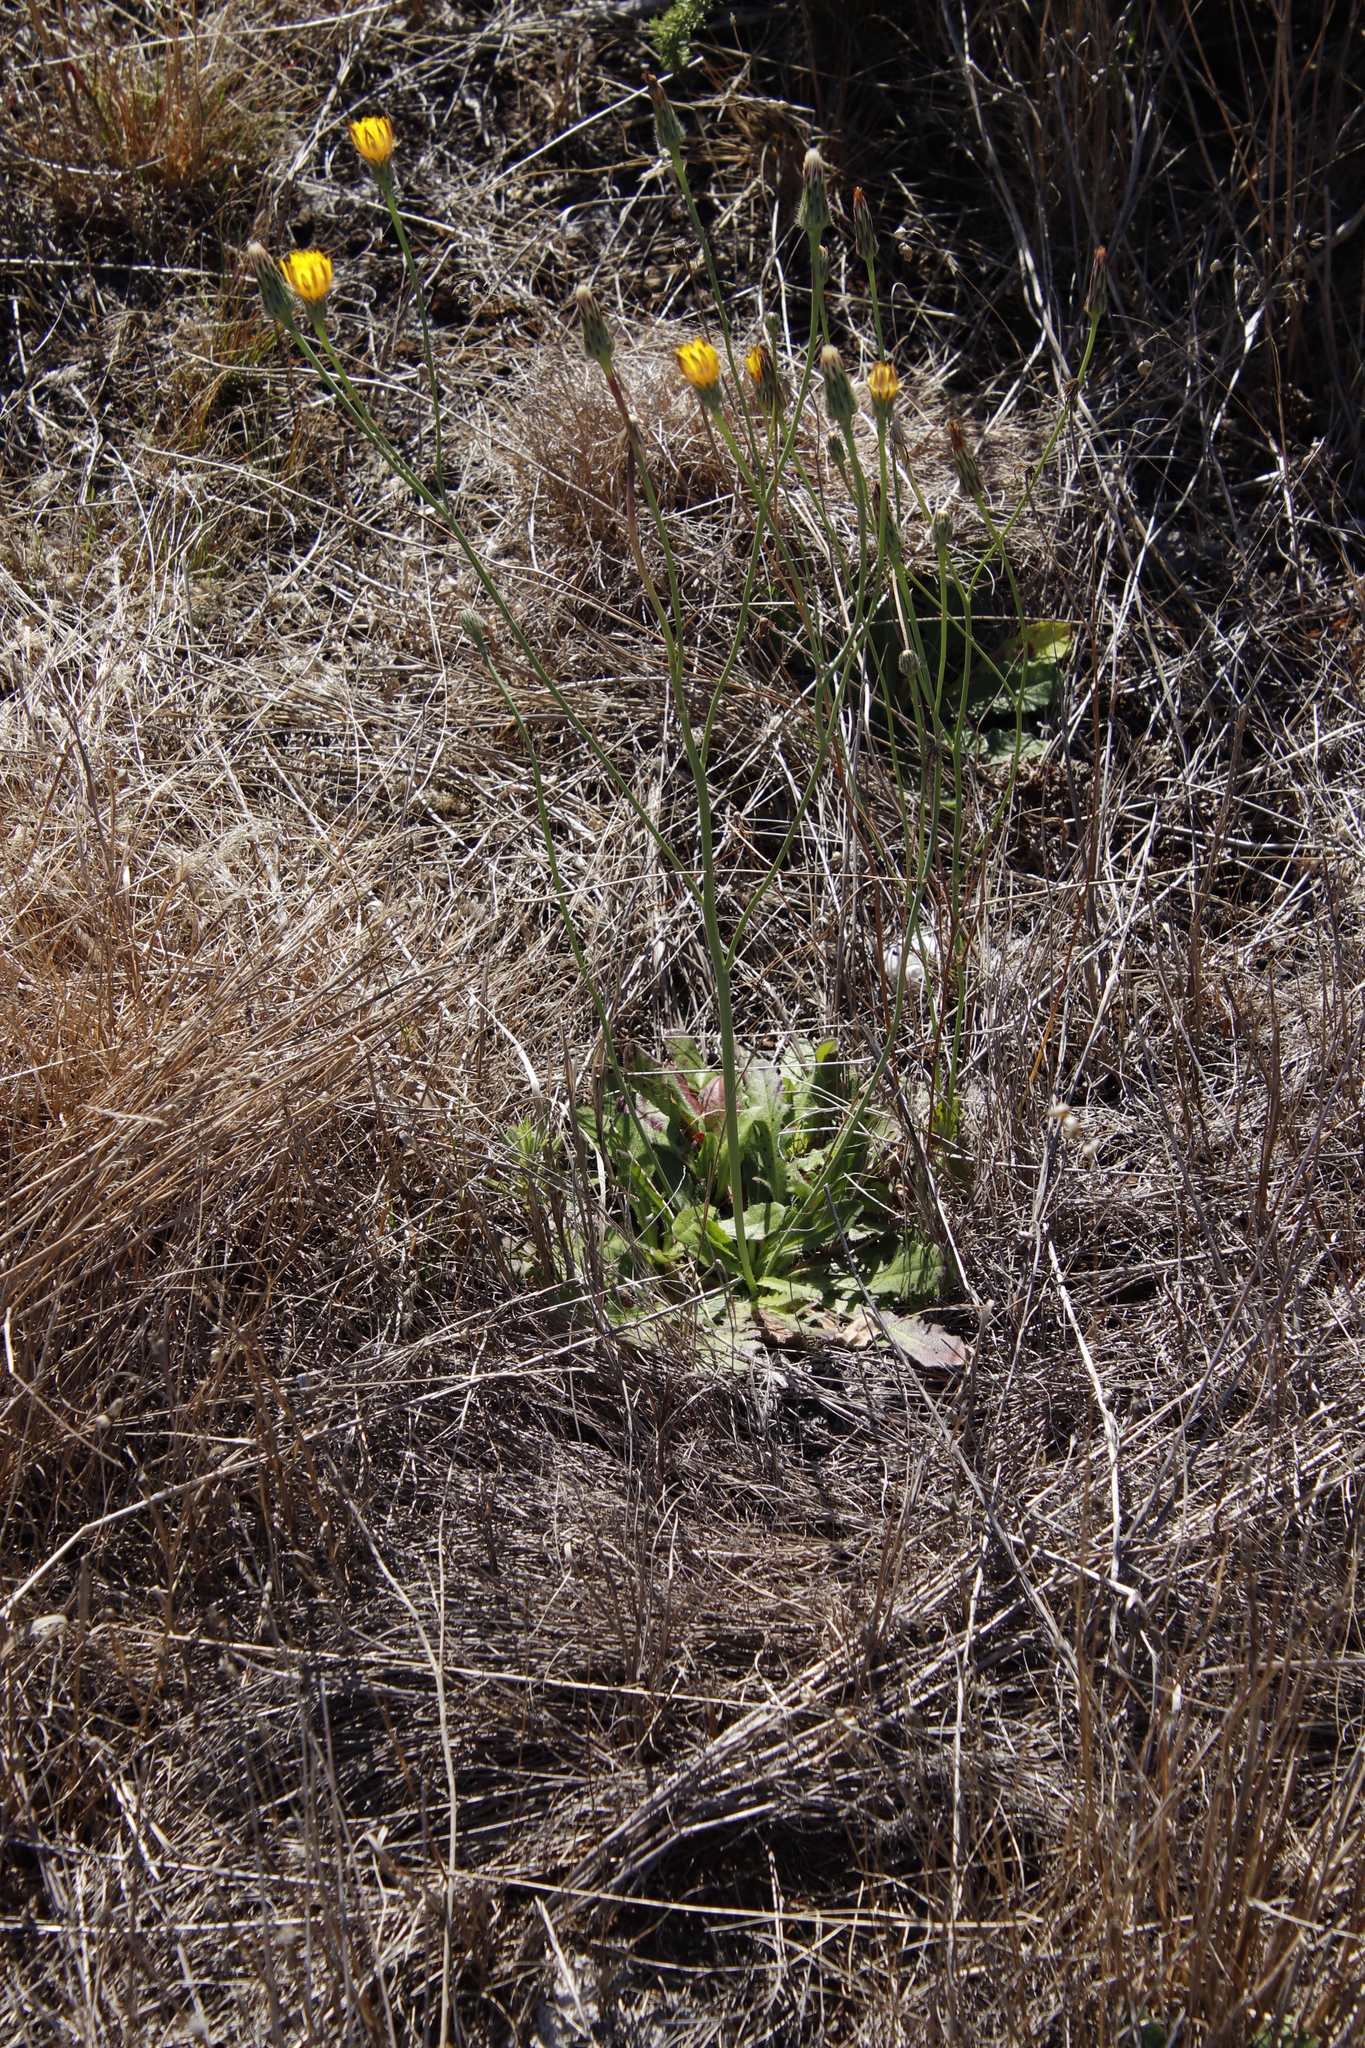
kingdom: Plantae
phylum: Tracheophyta
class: Magnoliopsida
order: Asterales
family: Asteraceae
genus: Hypochaeris
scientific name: Hypochaeris radicata
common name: Flatweed
